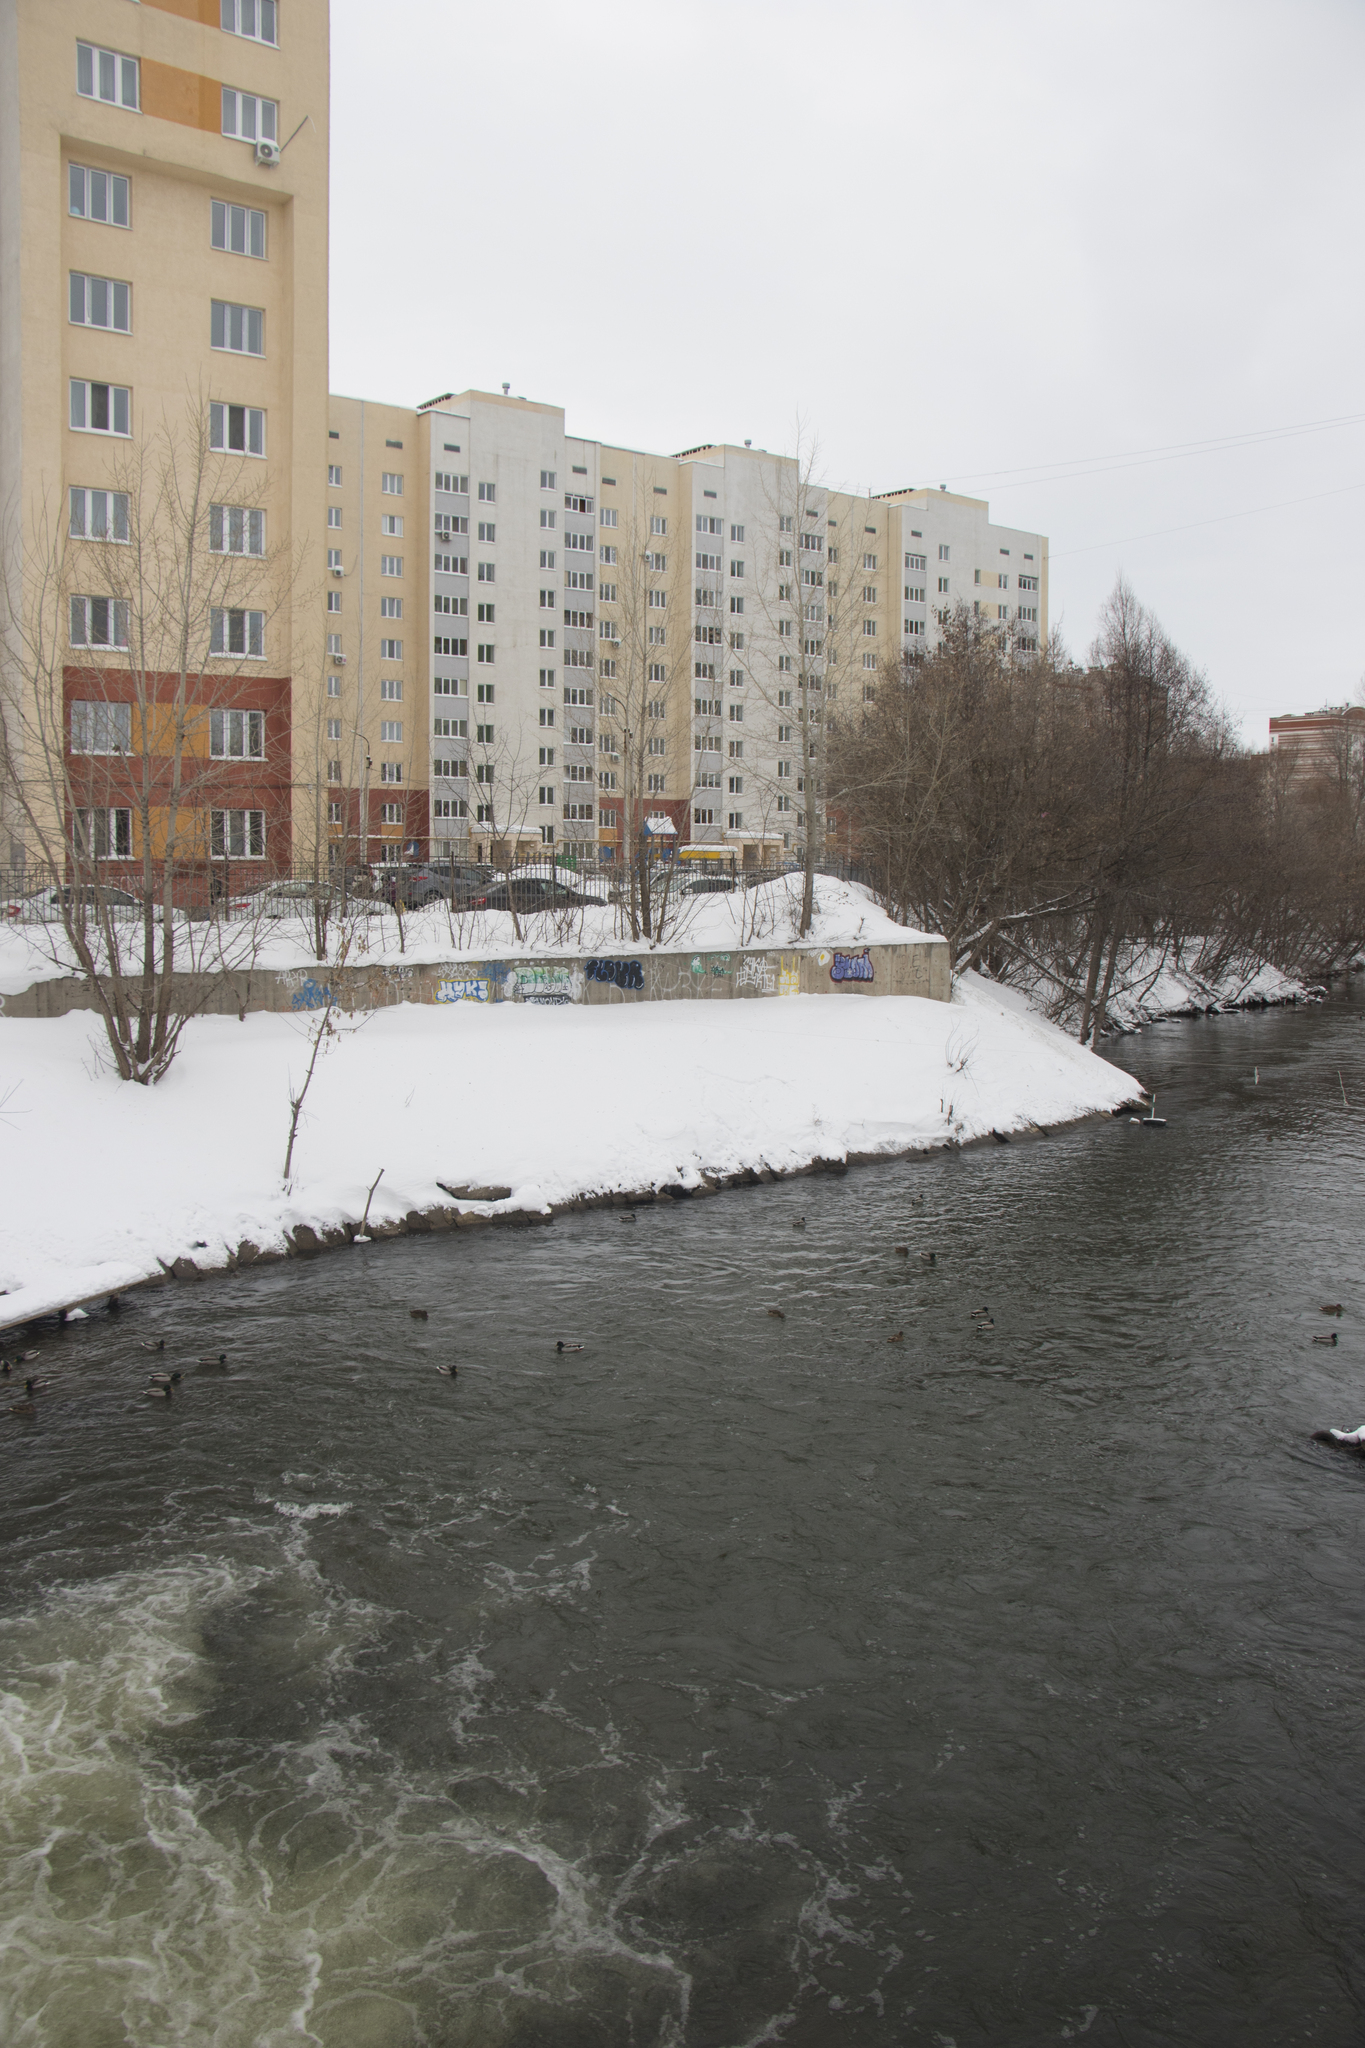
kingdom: Animalia
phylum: Chordata
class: Aves
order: Anseriformes
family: Anatidae
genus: Anas
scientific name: Anas platyrhynchos
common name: Mallard
